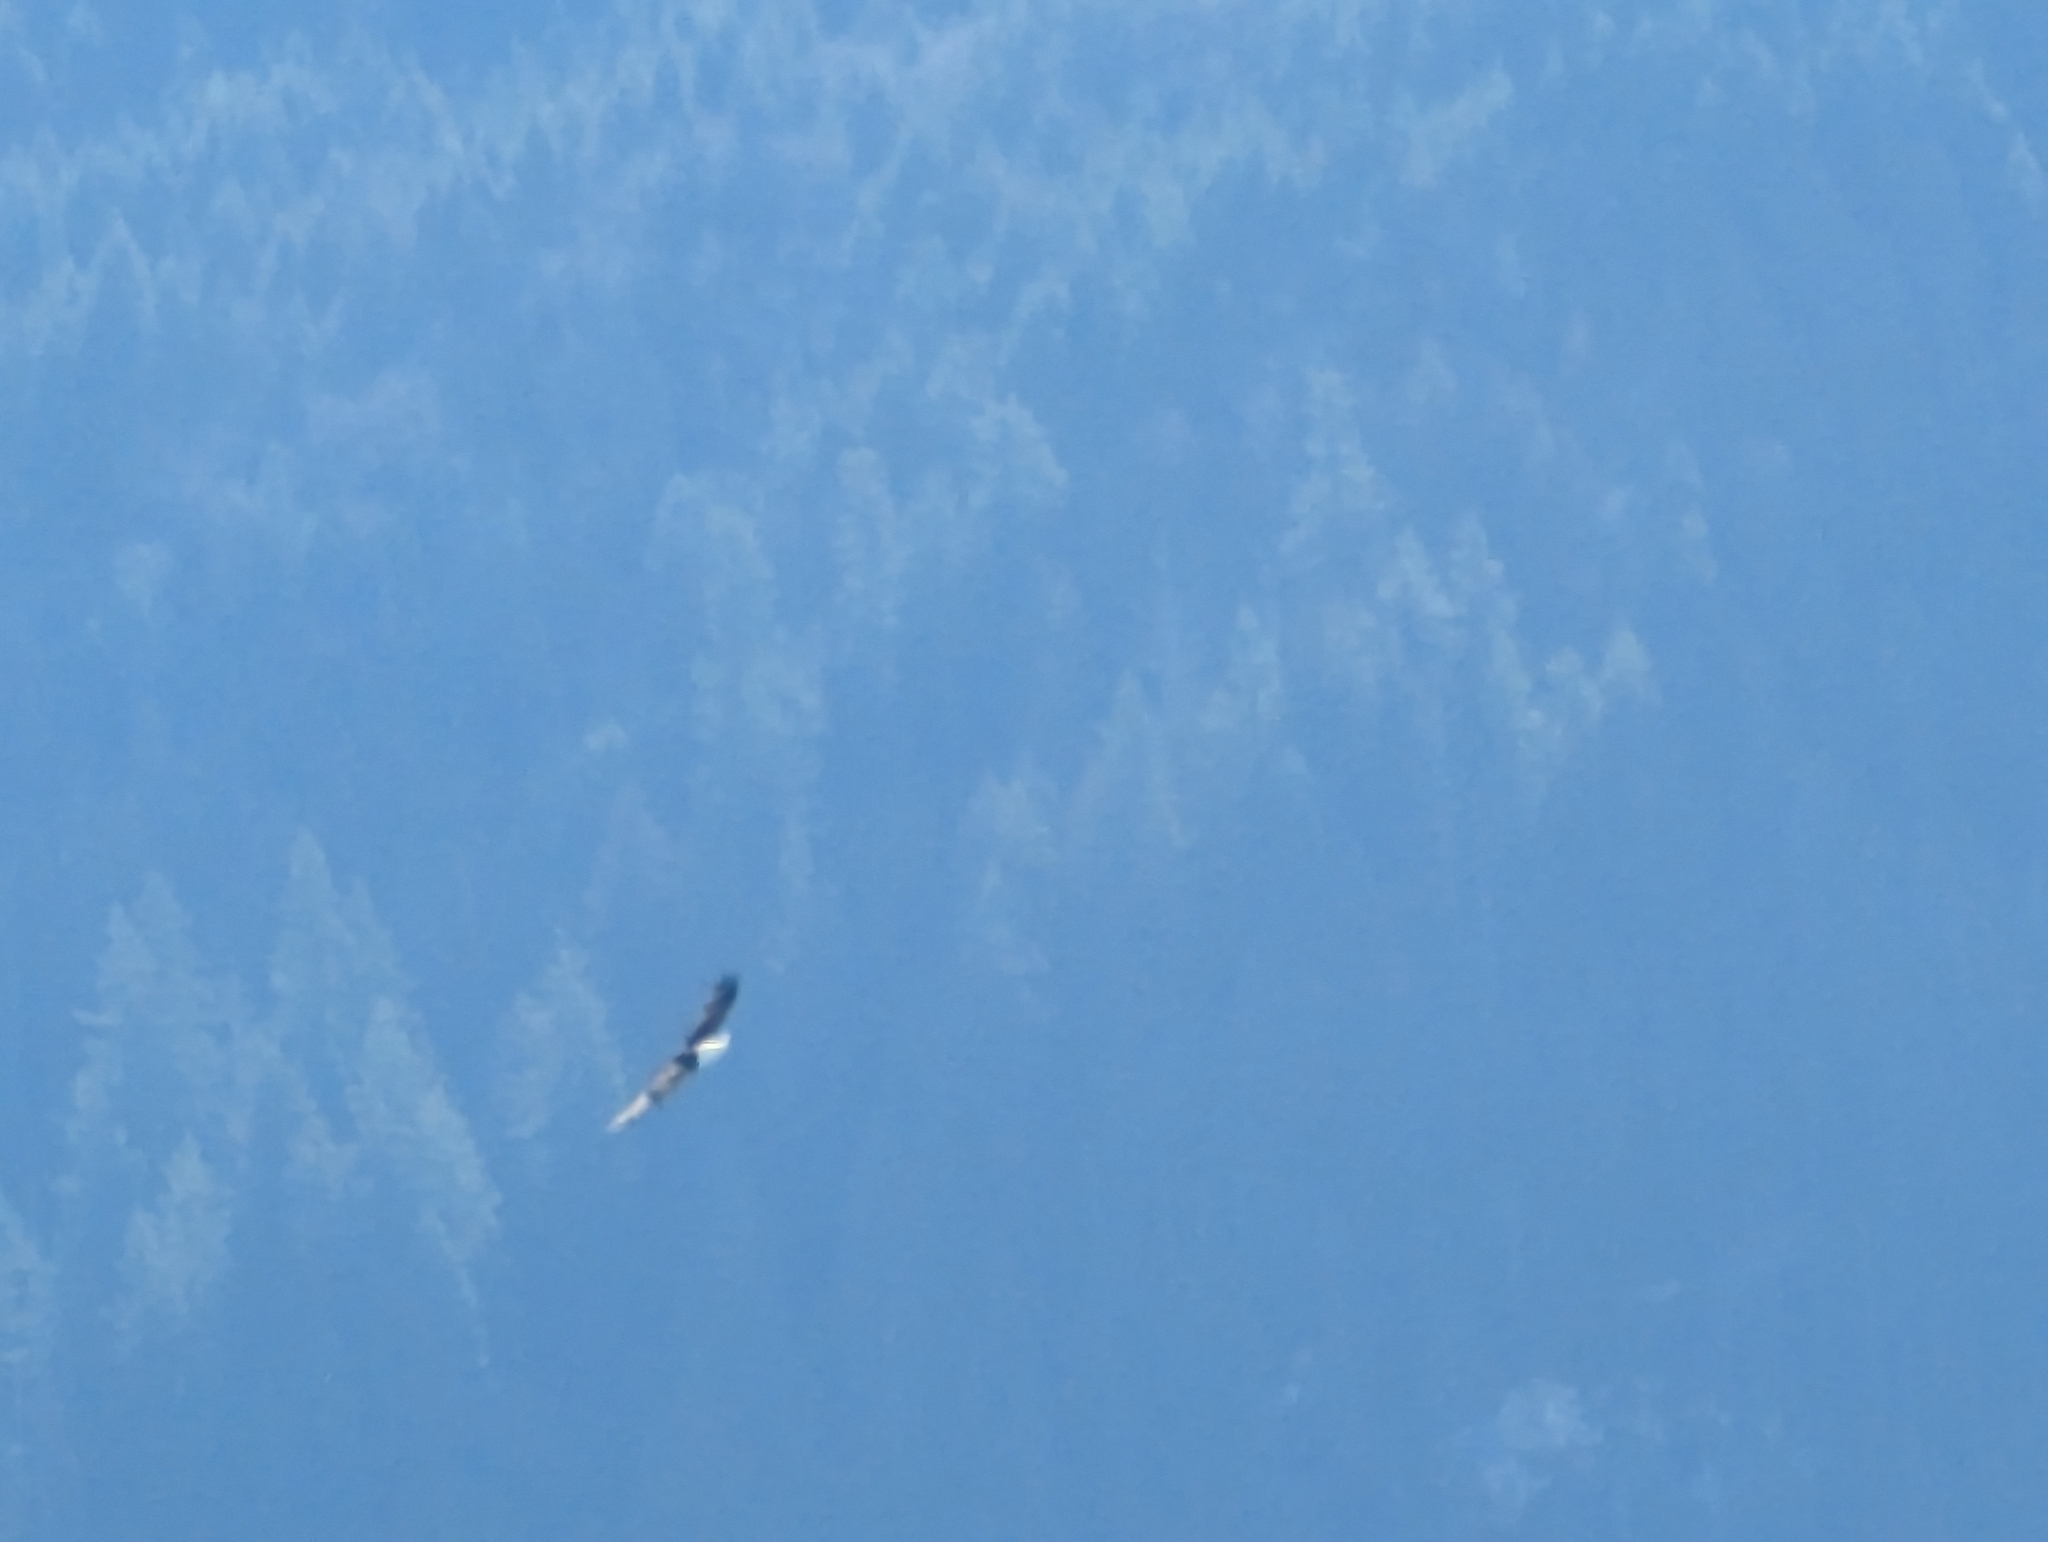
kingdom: Animalia
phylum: Chordata
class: Aves
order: Accipitriformes
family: Accipitridae
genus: Haliaeetus
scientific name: Haliaeetus leucocephalus
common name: Bald eagle
